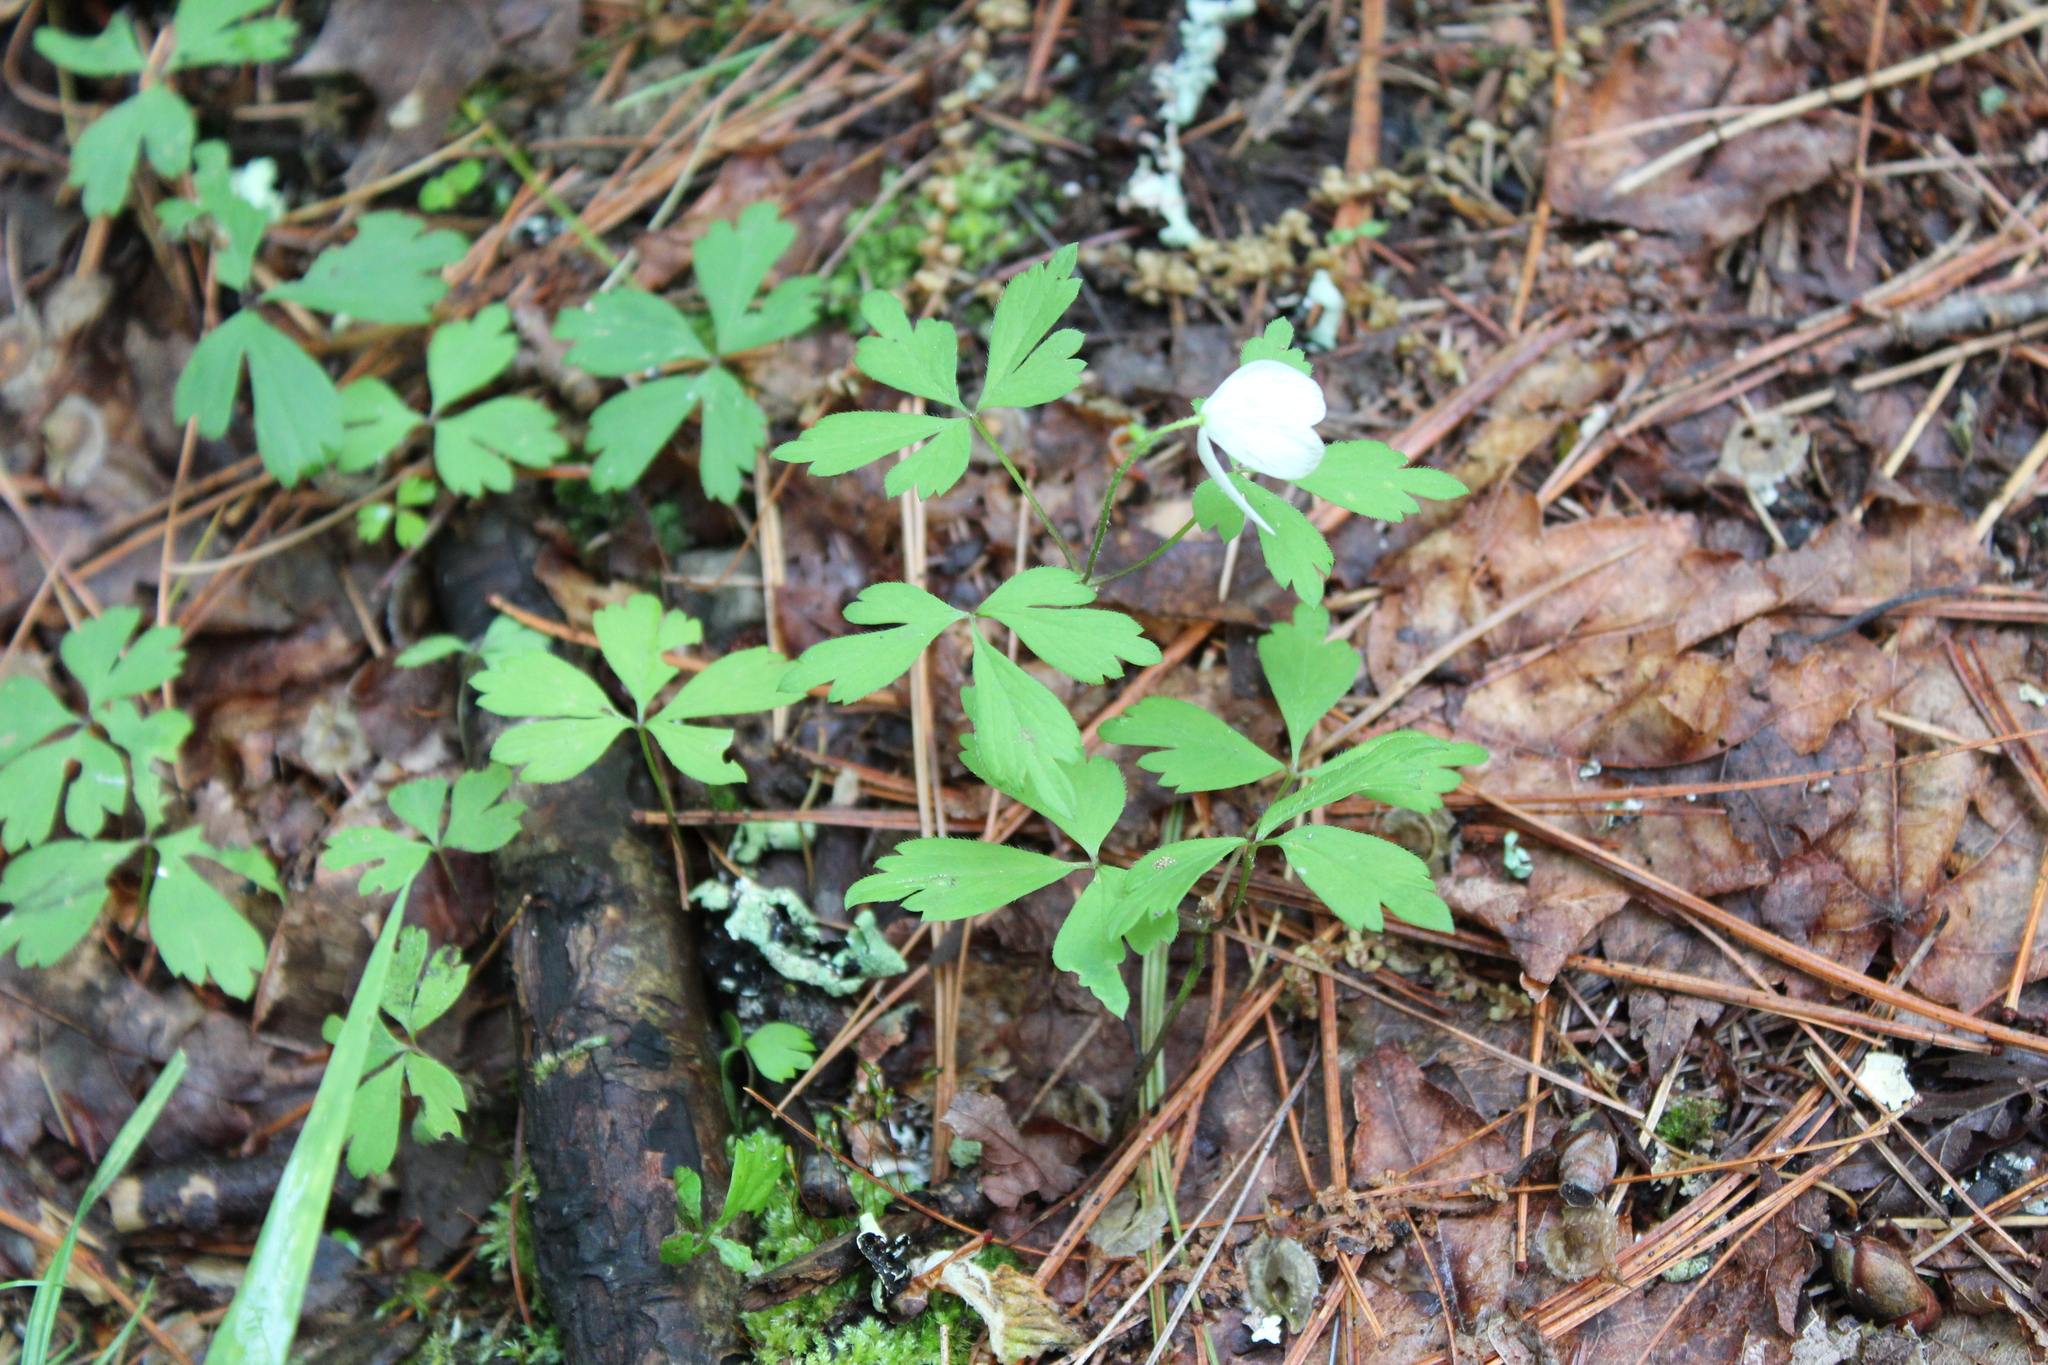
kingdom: Plantae
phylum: Tracheophyta
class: Magnoliopsida
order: Ranunculales
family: Ranunculaceae
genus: Anemone
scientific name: Anemone quinquefolia
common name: Wood anemone
